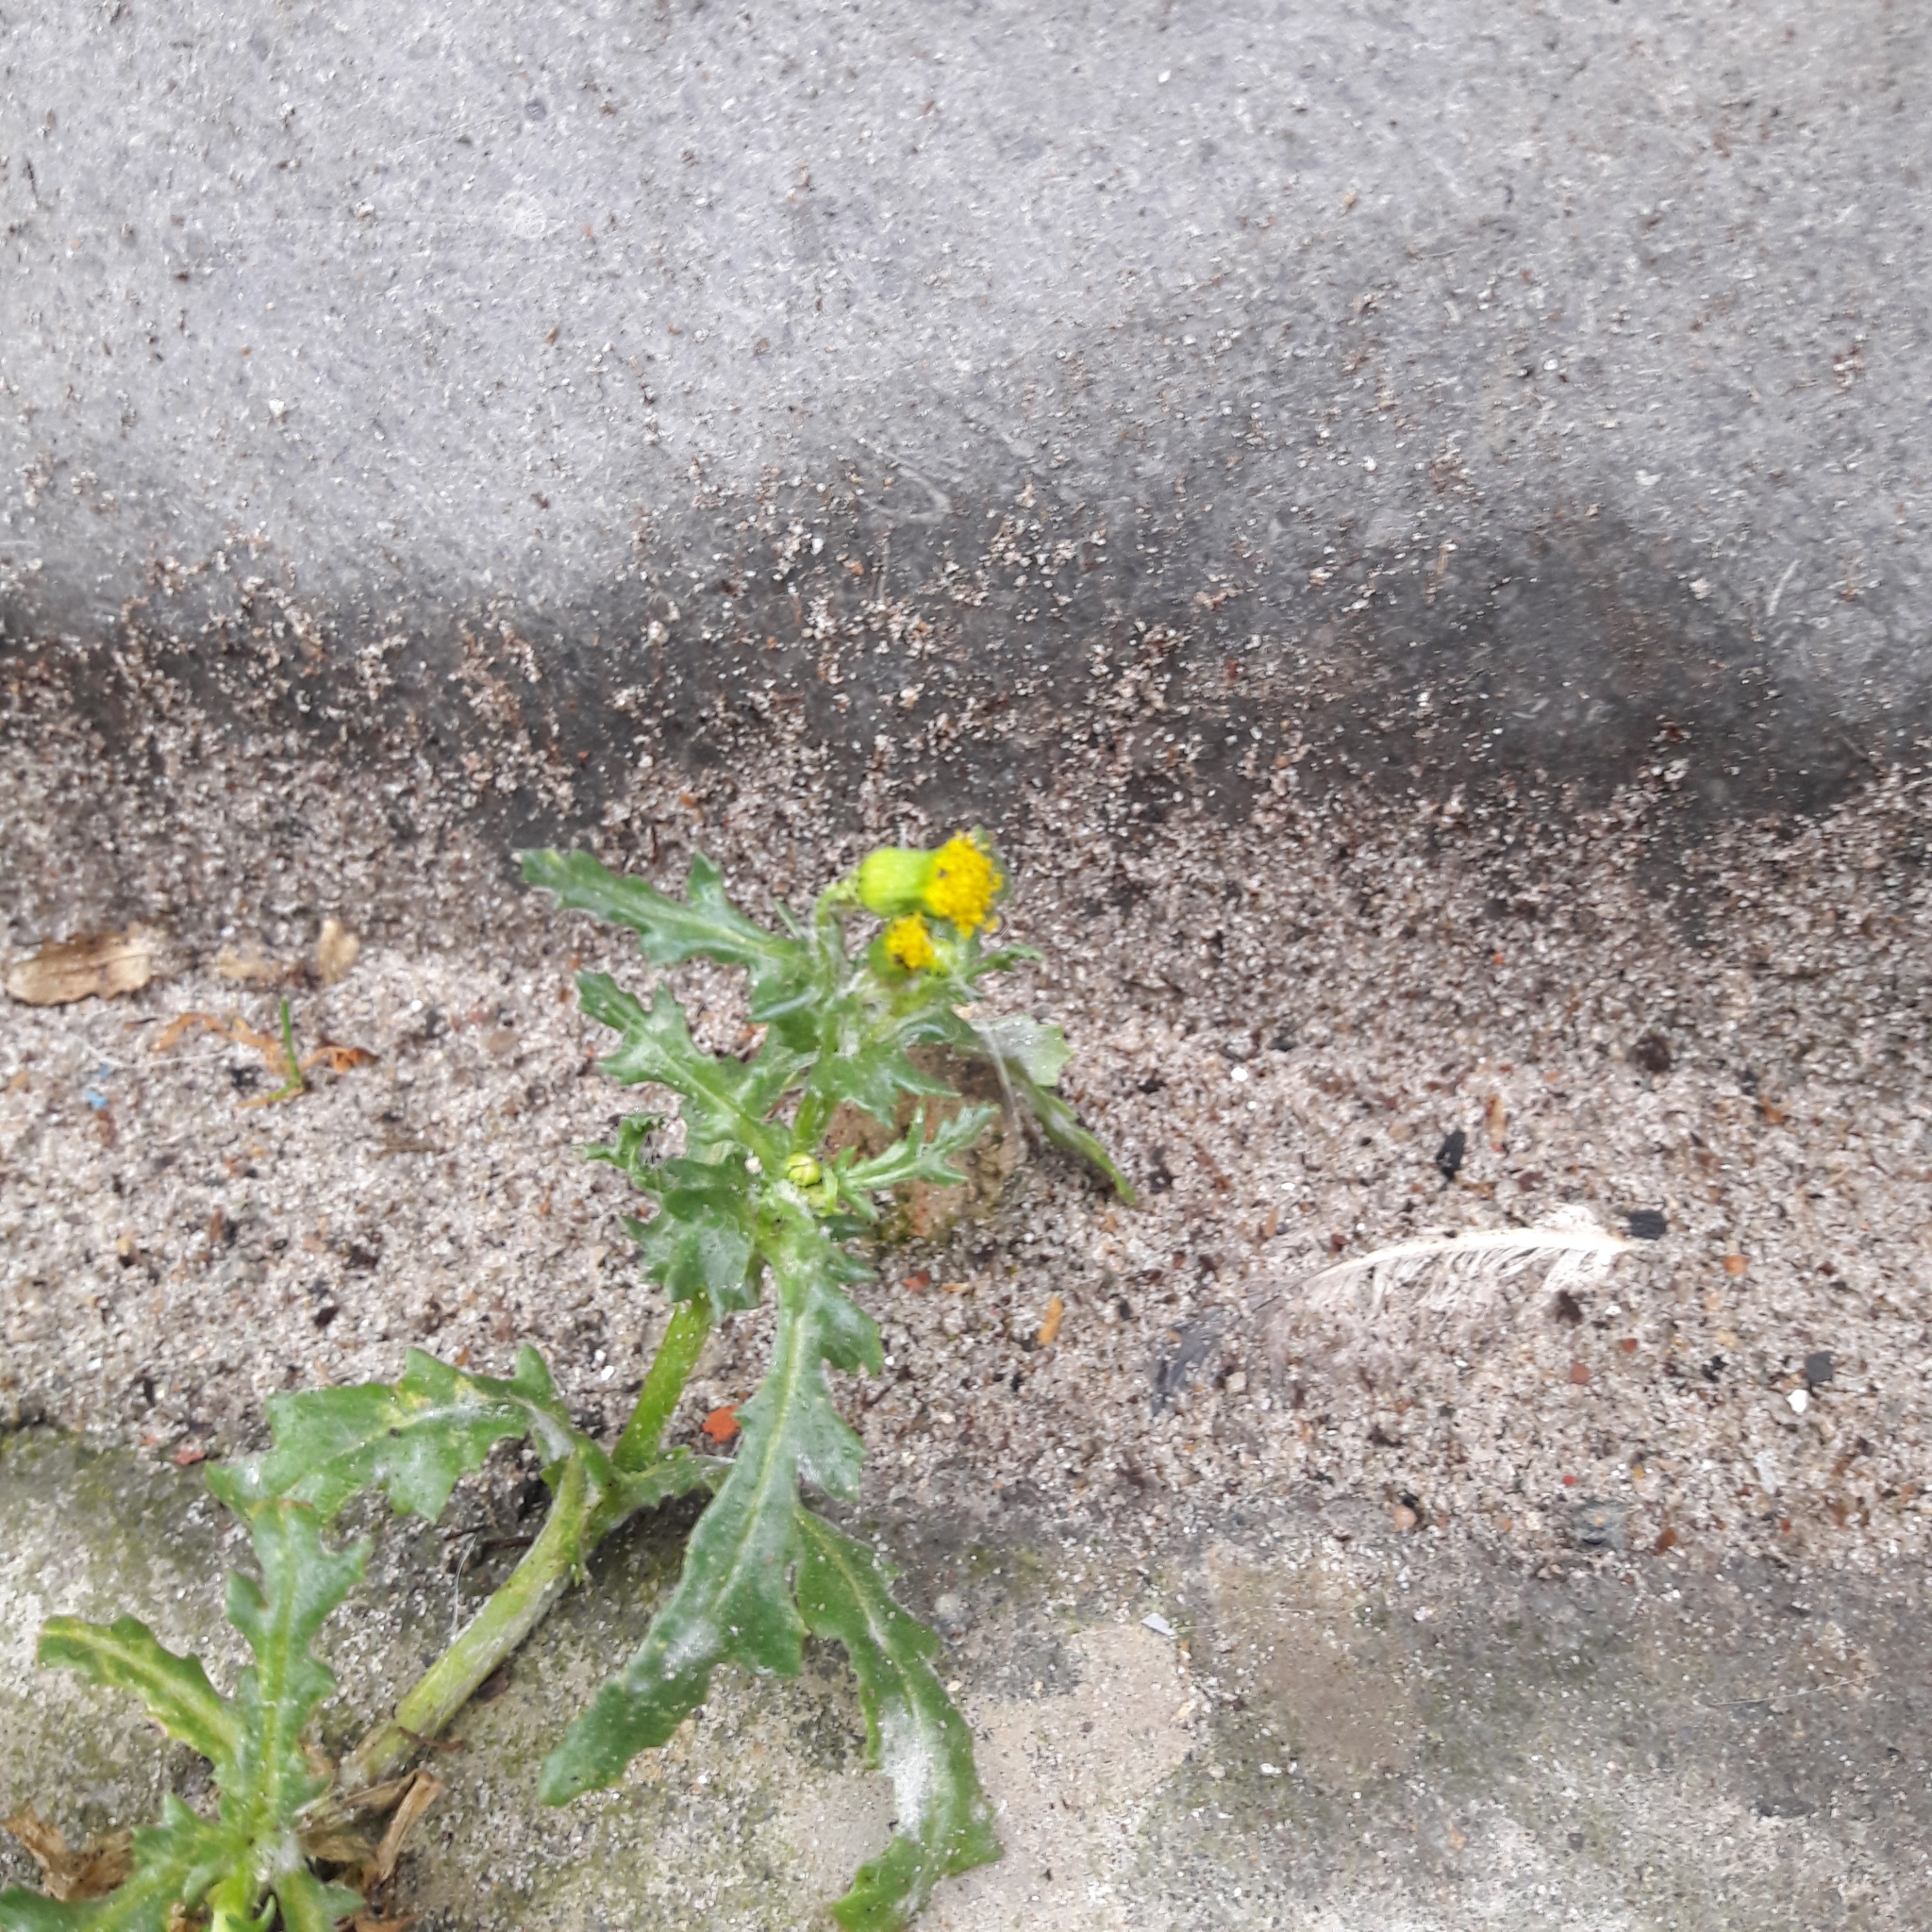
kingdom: Plantae
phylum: Tracheophyta
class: Magnoliopsida
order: Asterales
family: Asteraceae
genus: Senecio
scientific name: Senecio vulgaris
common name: Old-man-in-the-spring
